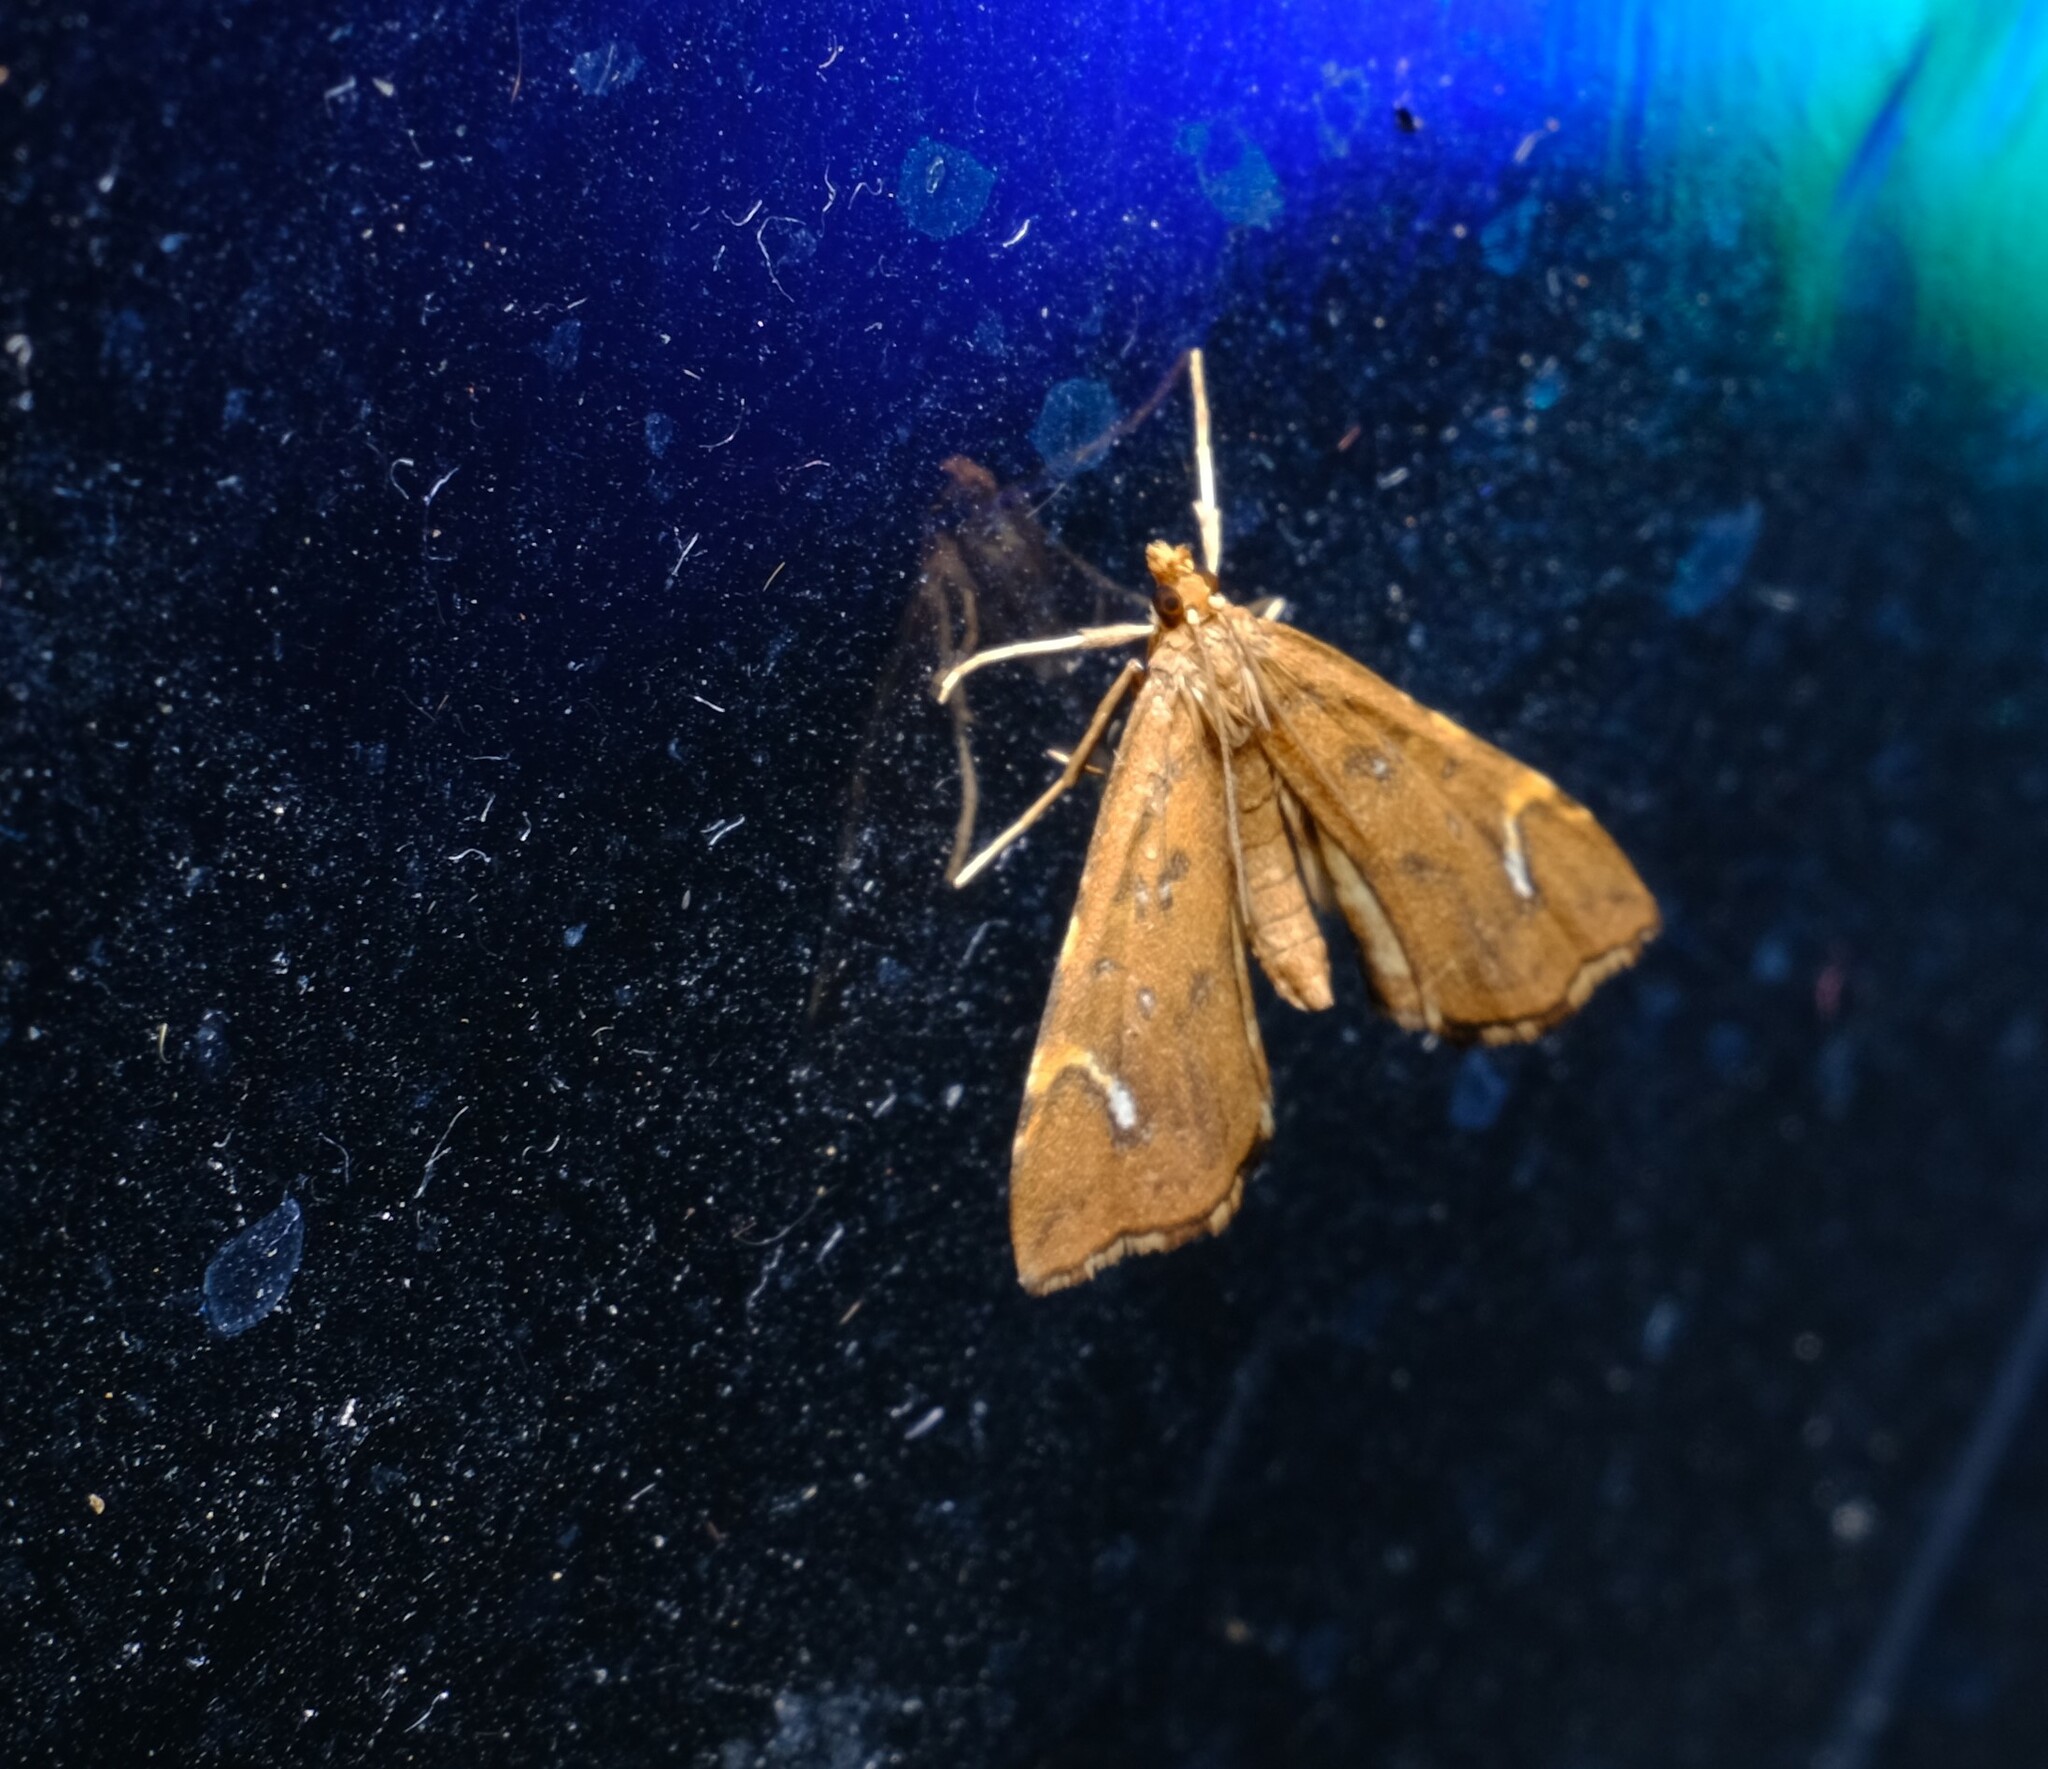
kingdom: Animalia
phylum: Arthropoda
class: Insecta
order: Lepidoptera
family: Pyralidae
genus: Musotima
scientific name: Musotima nitidalis
